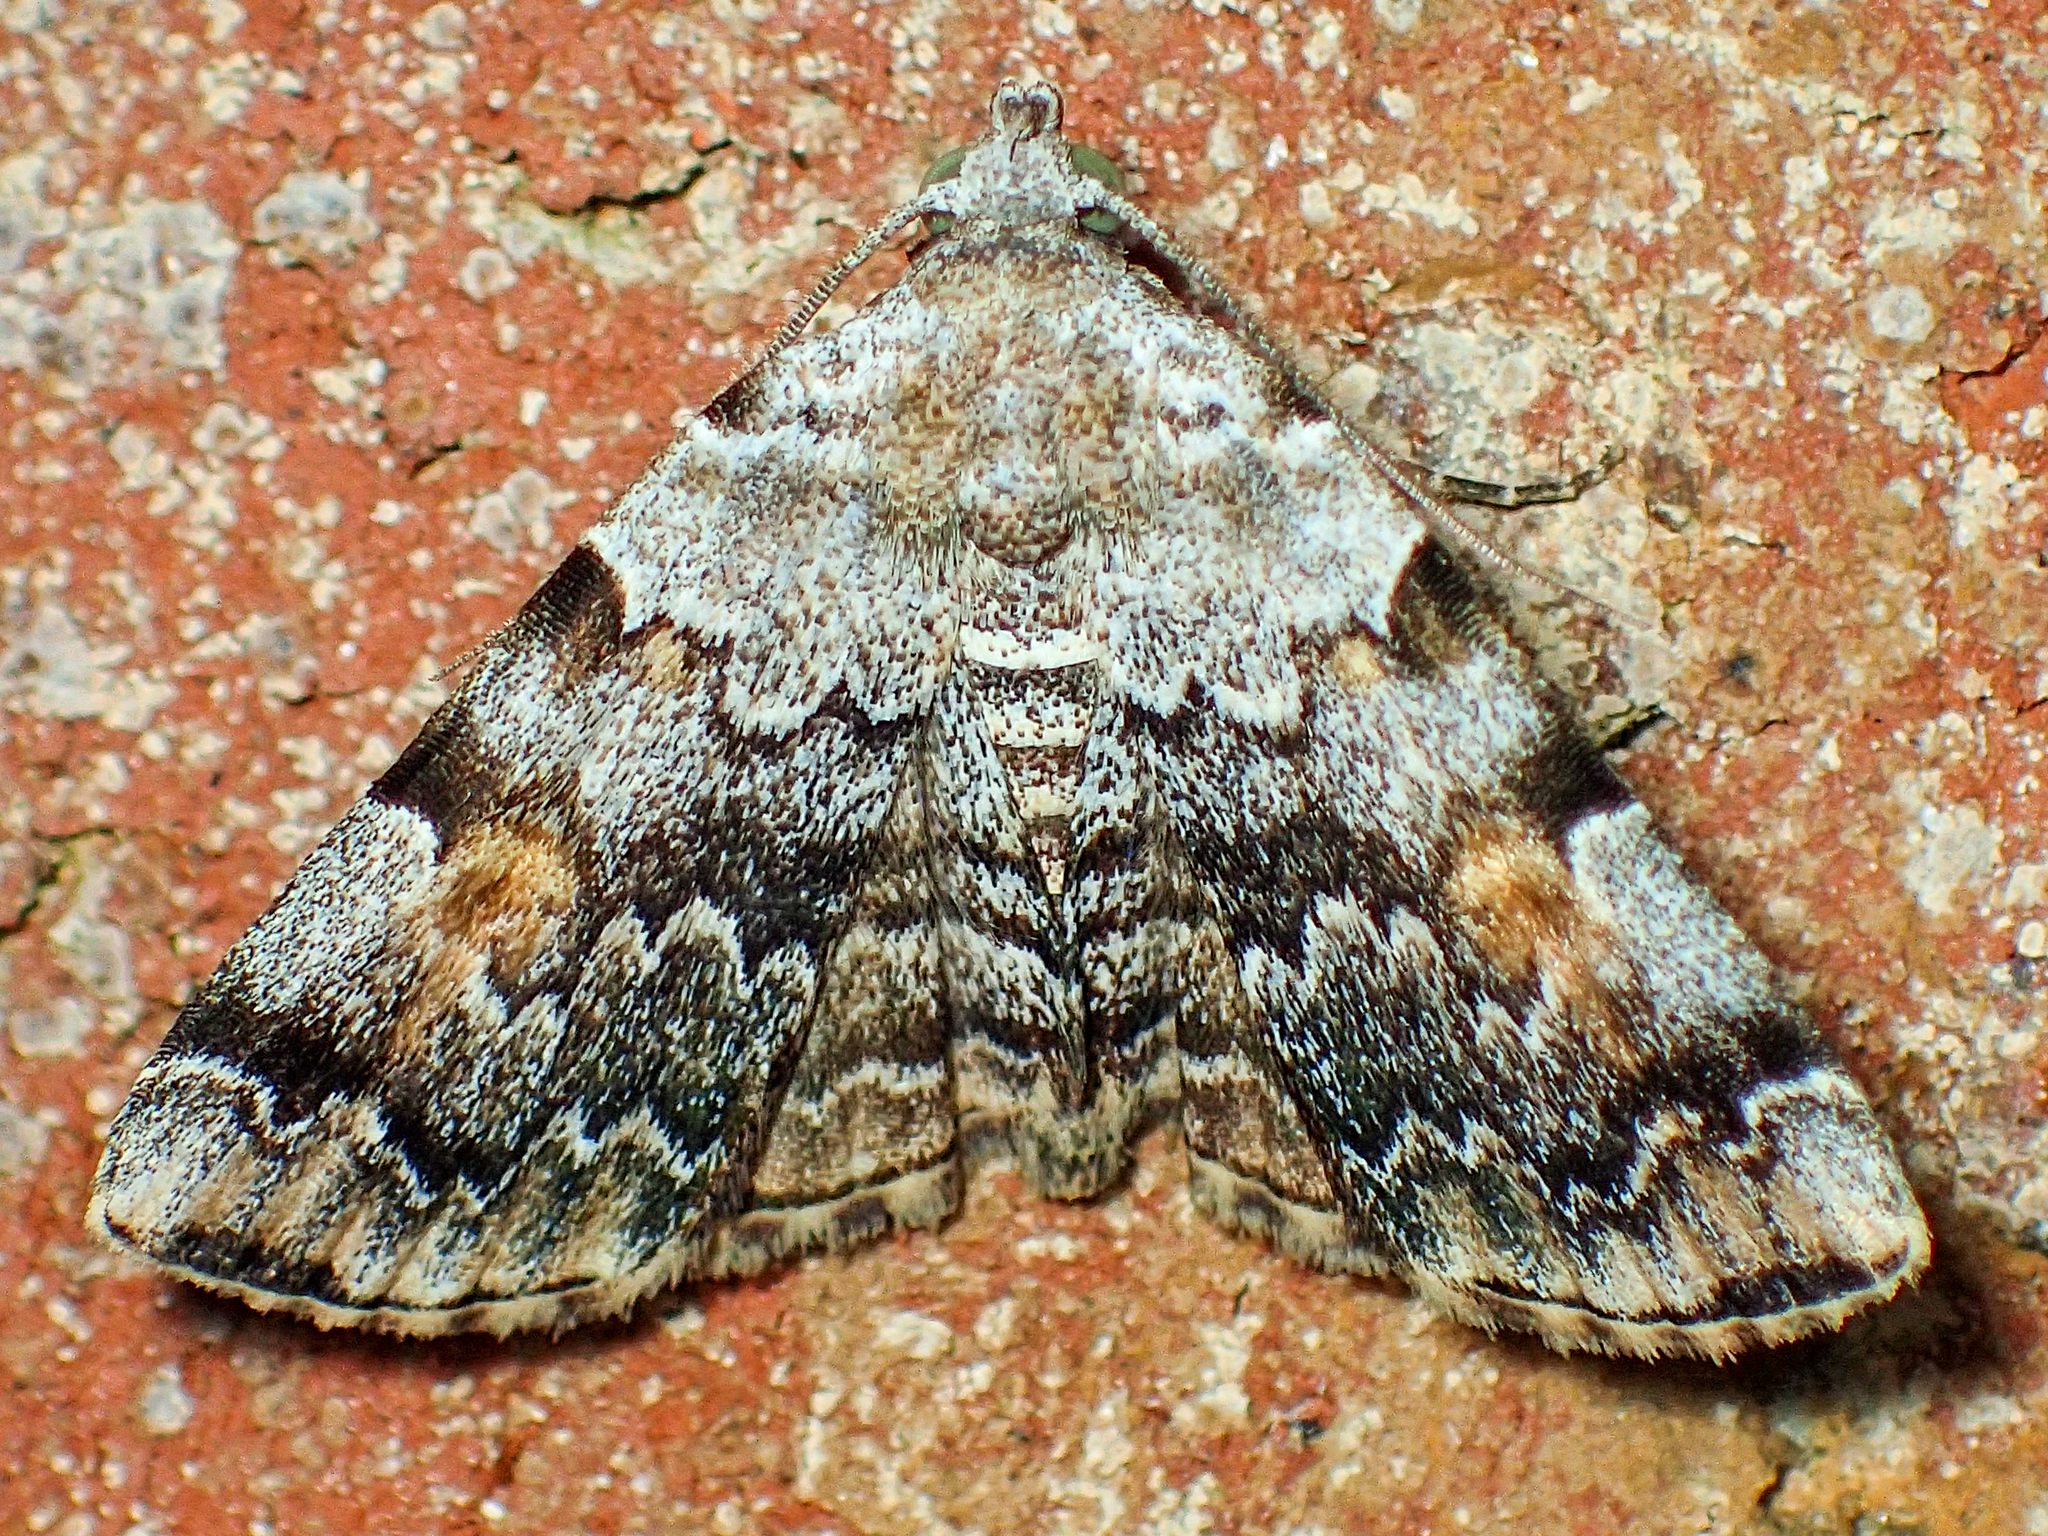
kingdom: Animalia
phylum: Arthropoda
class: Insecta
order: Lepidoptera
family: Erebidae
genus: Idia
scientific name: Idia americalis
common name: American idia moth
